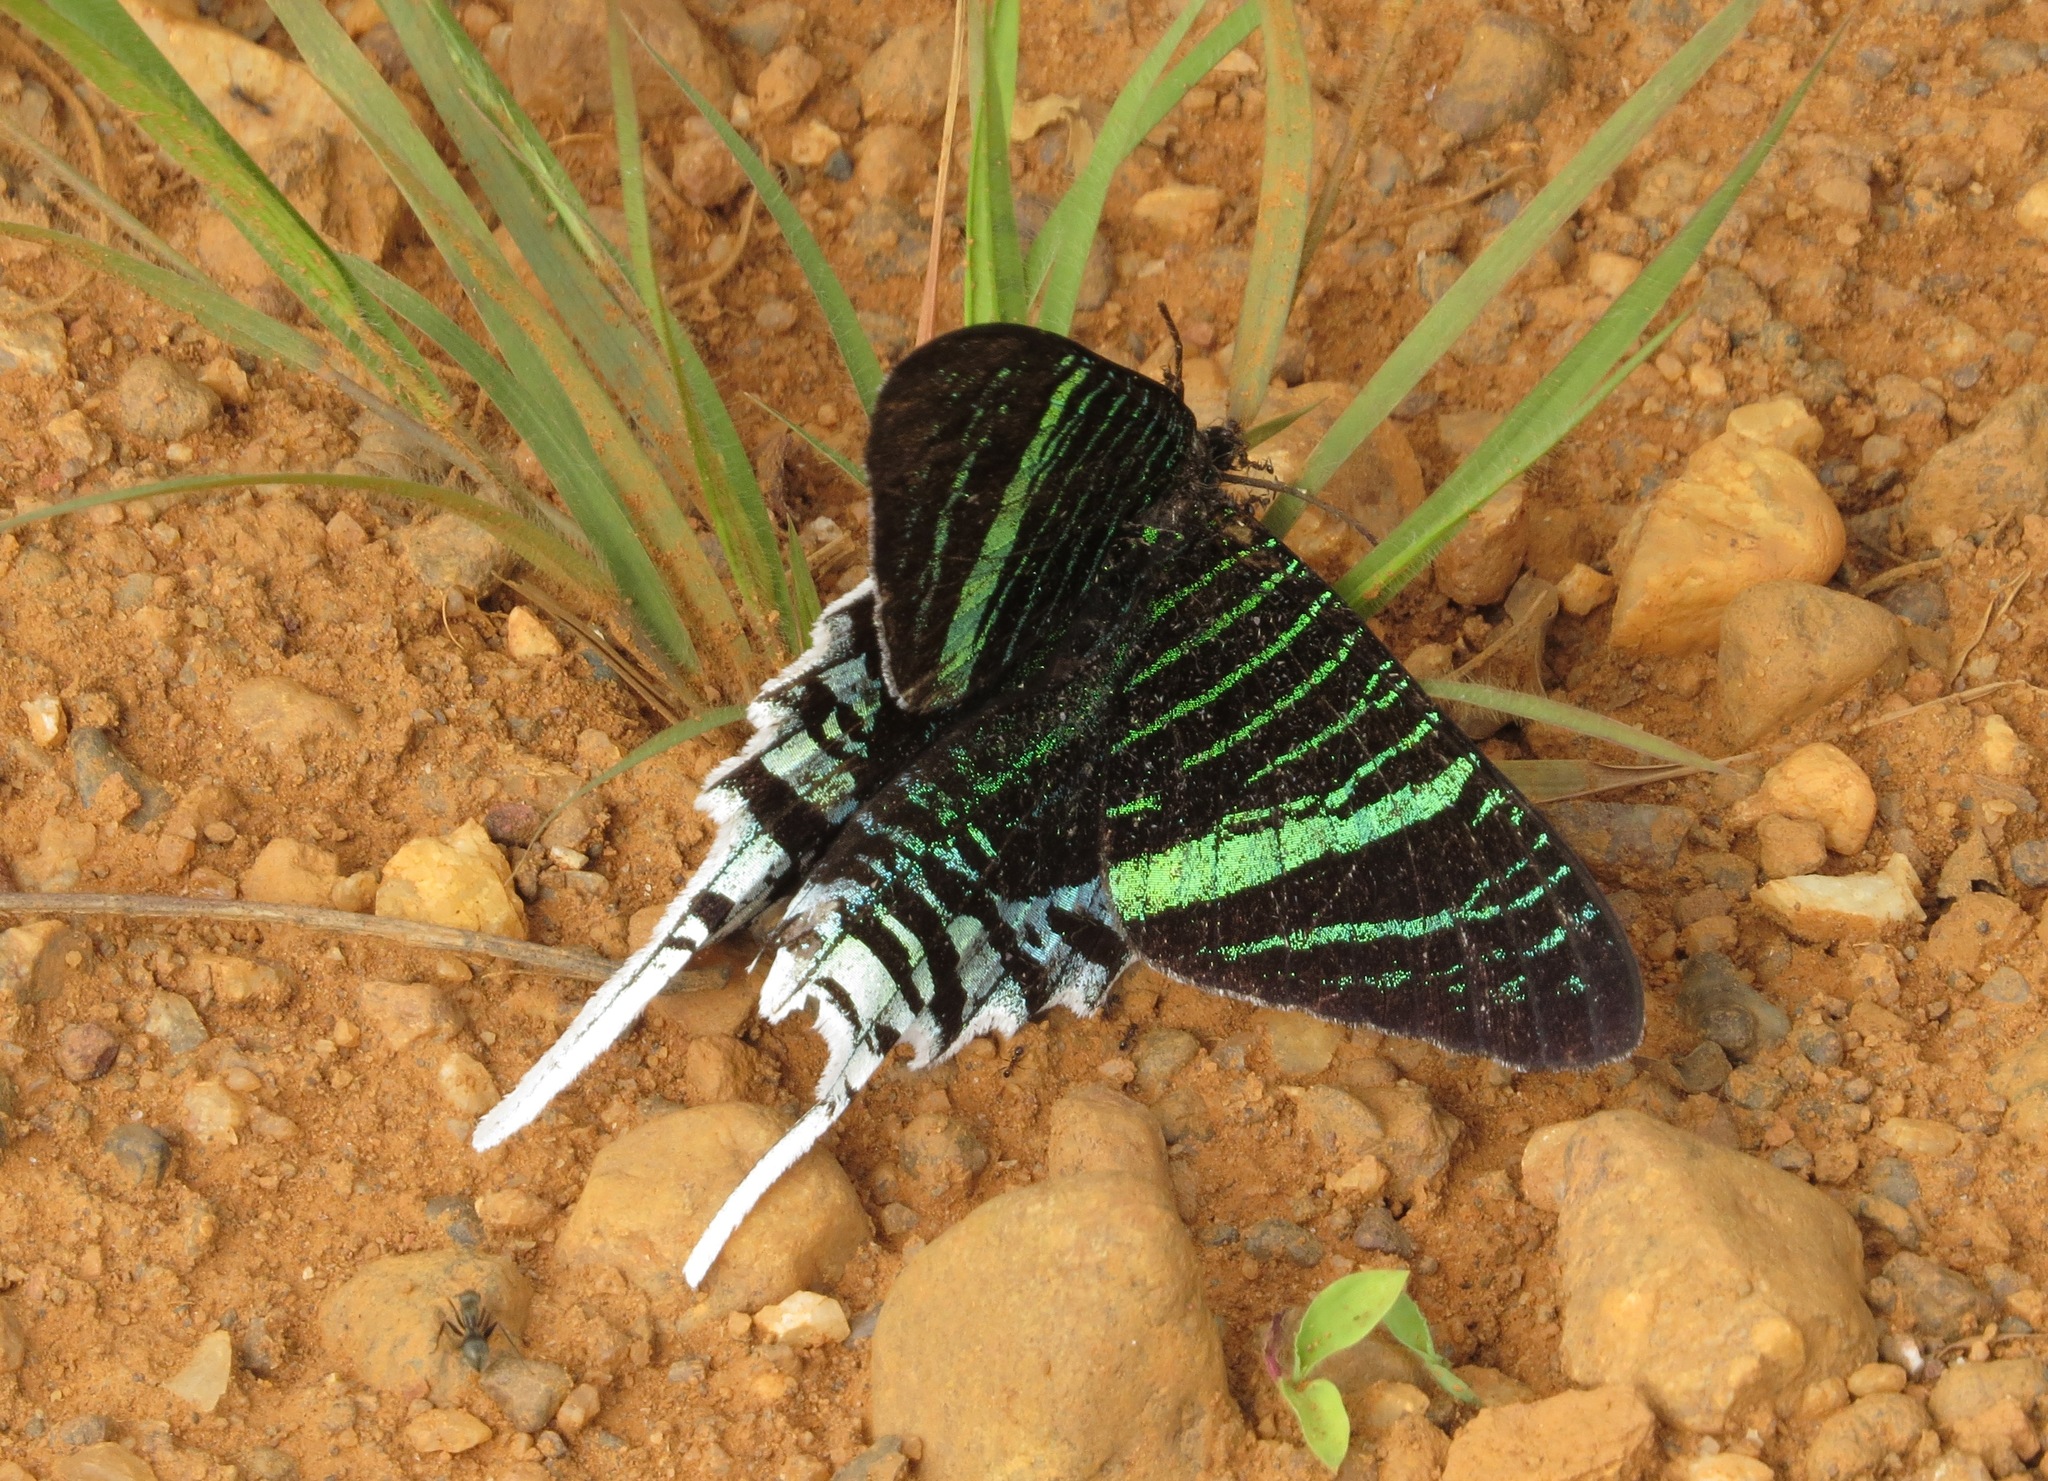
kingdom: Animalia
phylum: Arthropoda
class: Insecta
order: Lepidoptera
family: Uraniidae
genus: Urania
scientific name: Urania leilus
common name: Peacock moth
